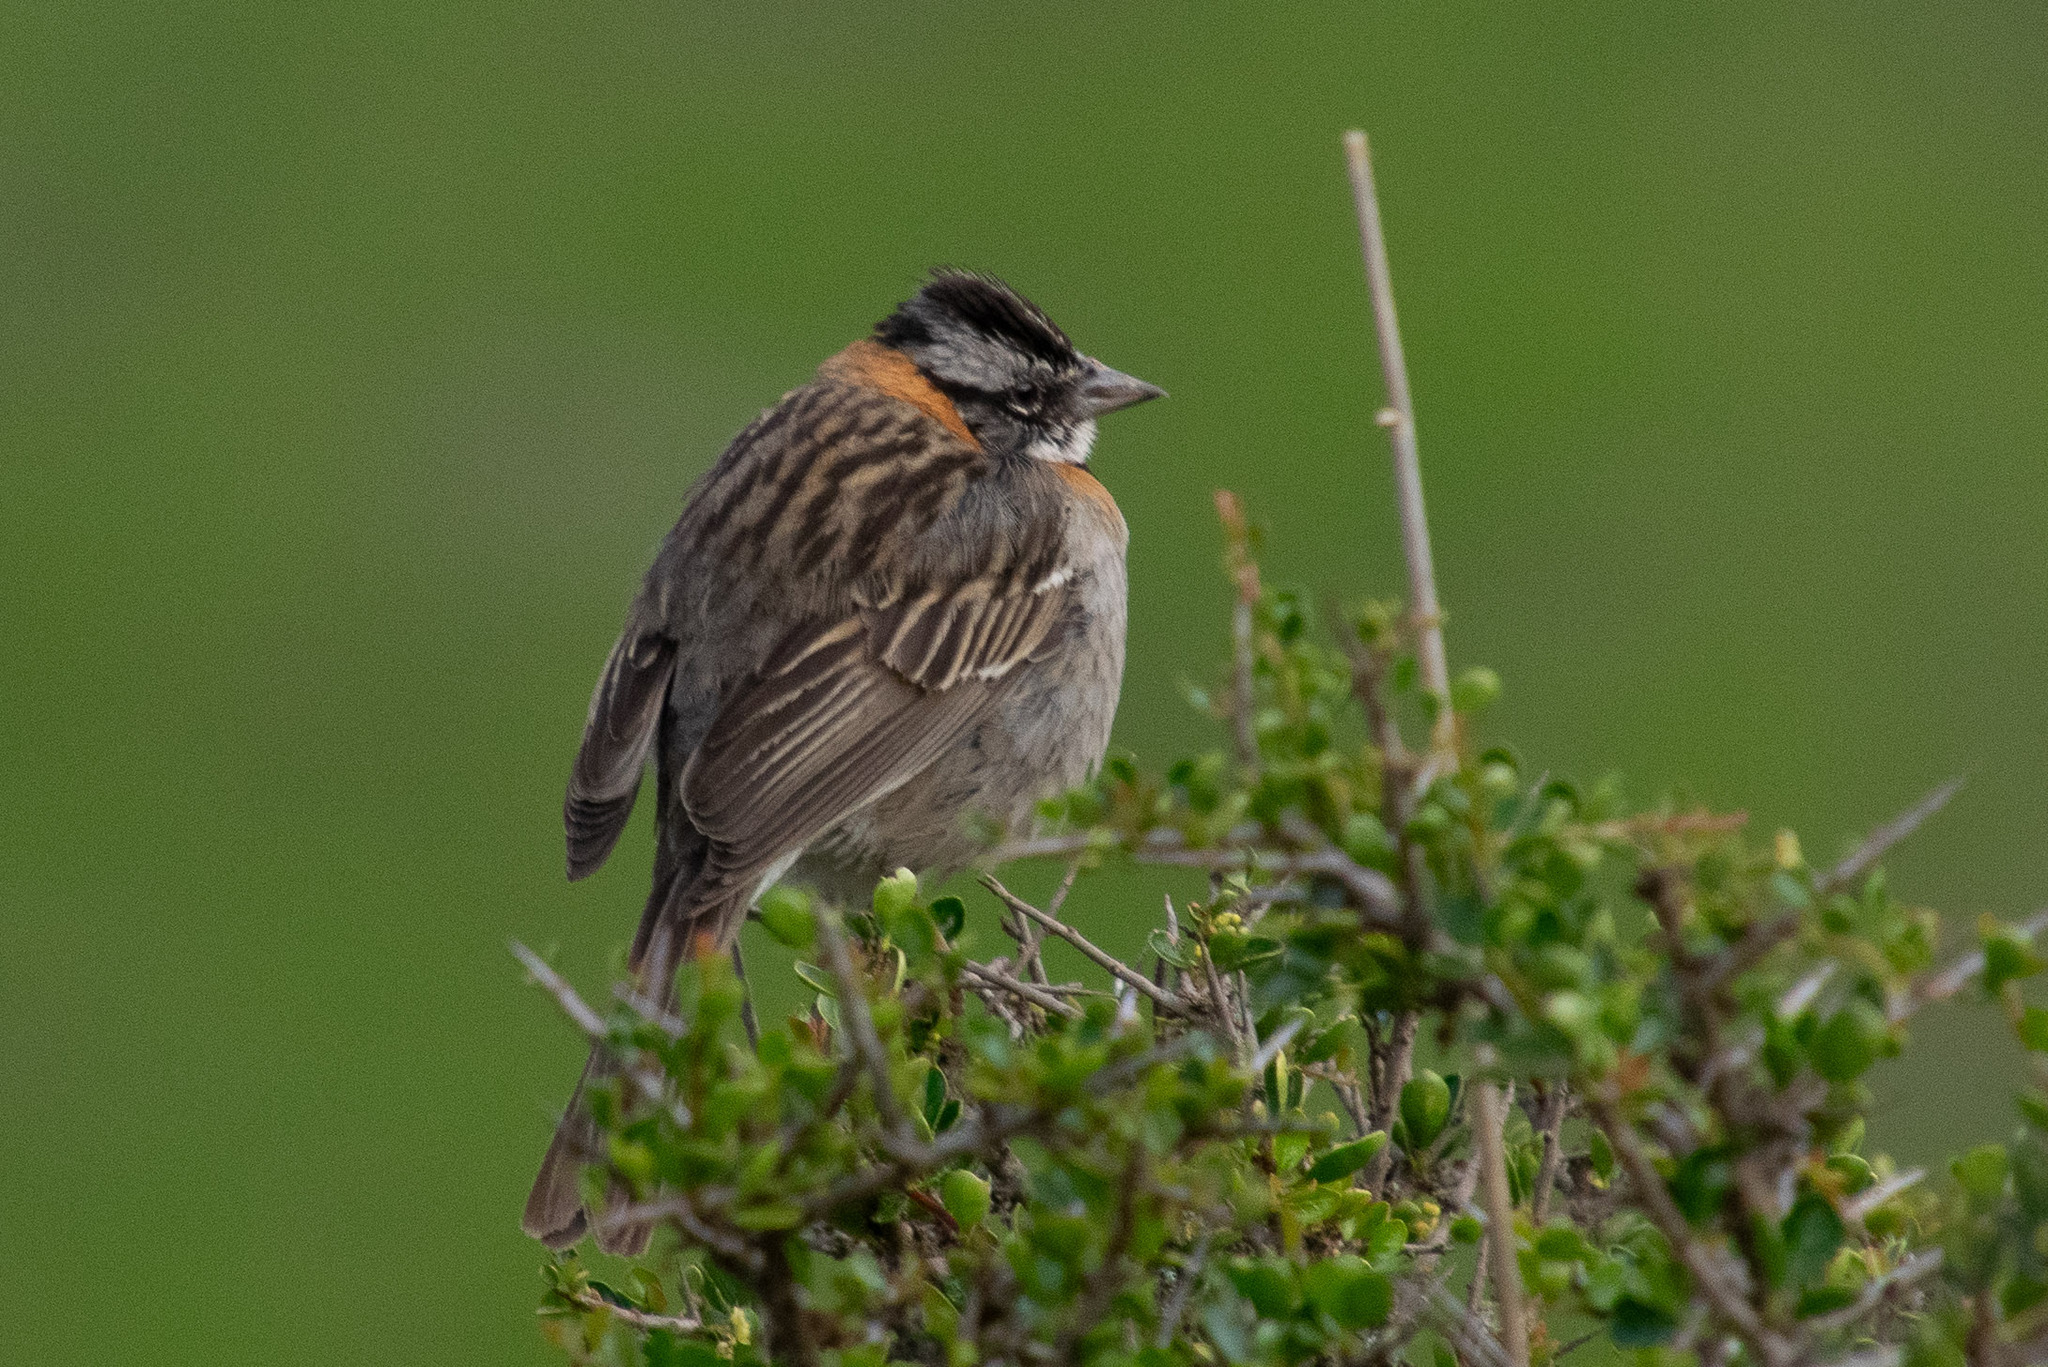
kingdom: Animalia
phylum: Chordata
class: Aves
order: Passeriformes
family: Passerellidae
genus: Zonotrichia
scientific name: Zonotrichia capensis
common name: Rufous-collared sparrow
